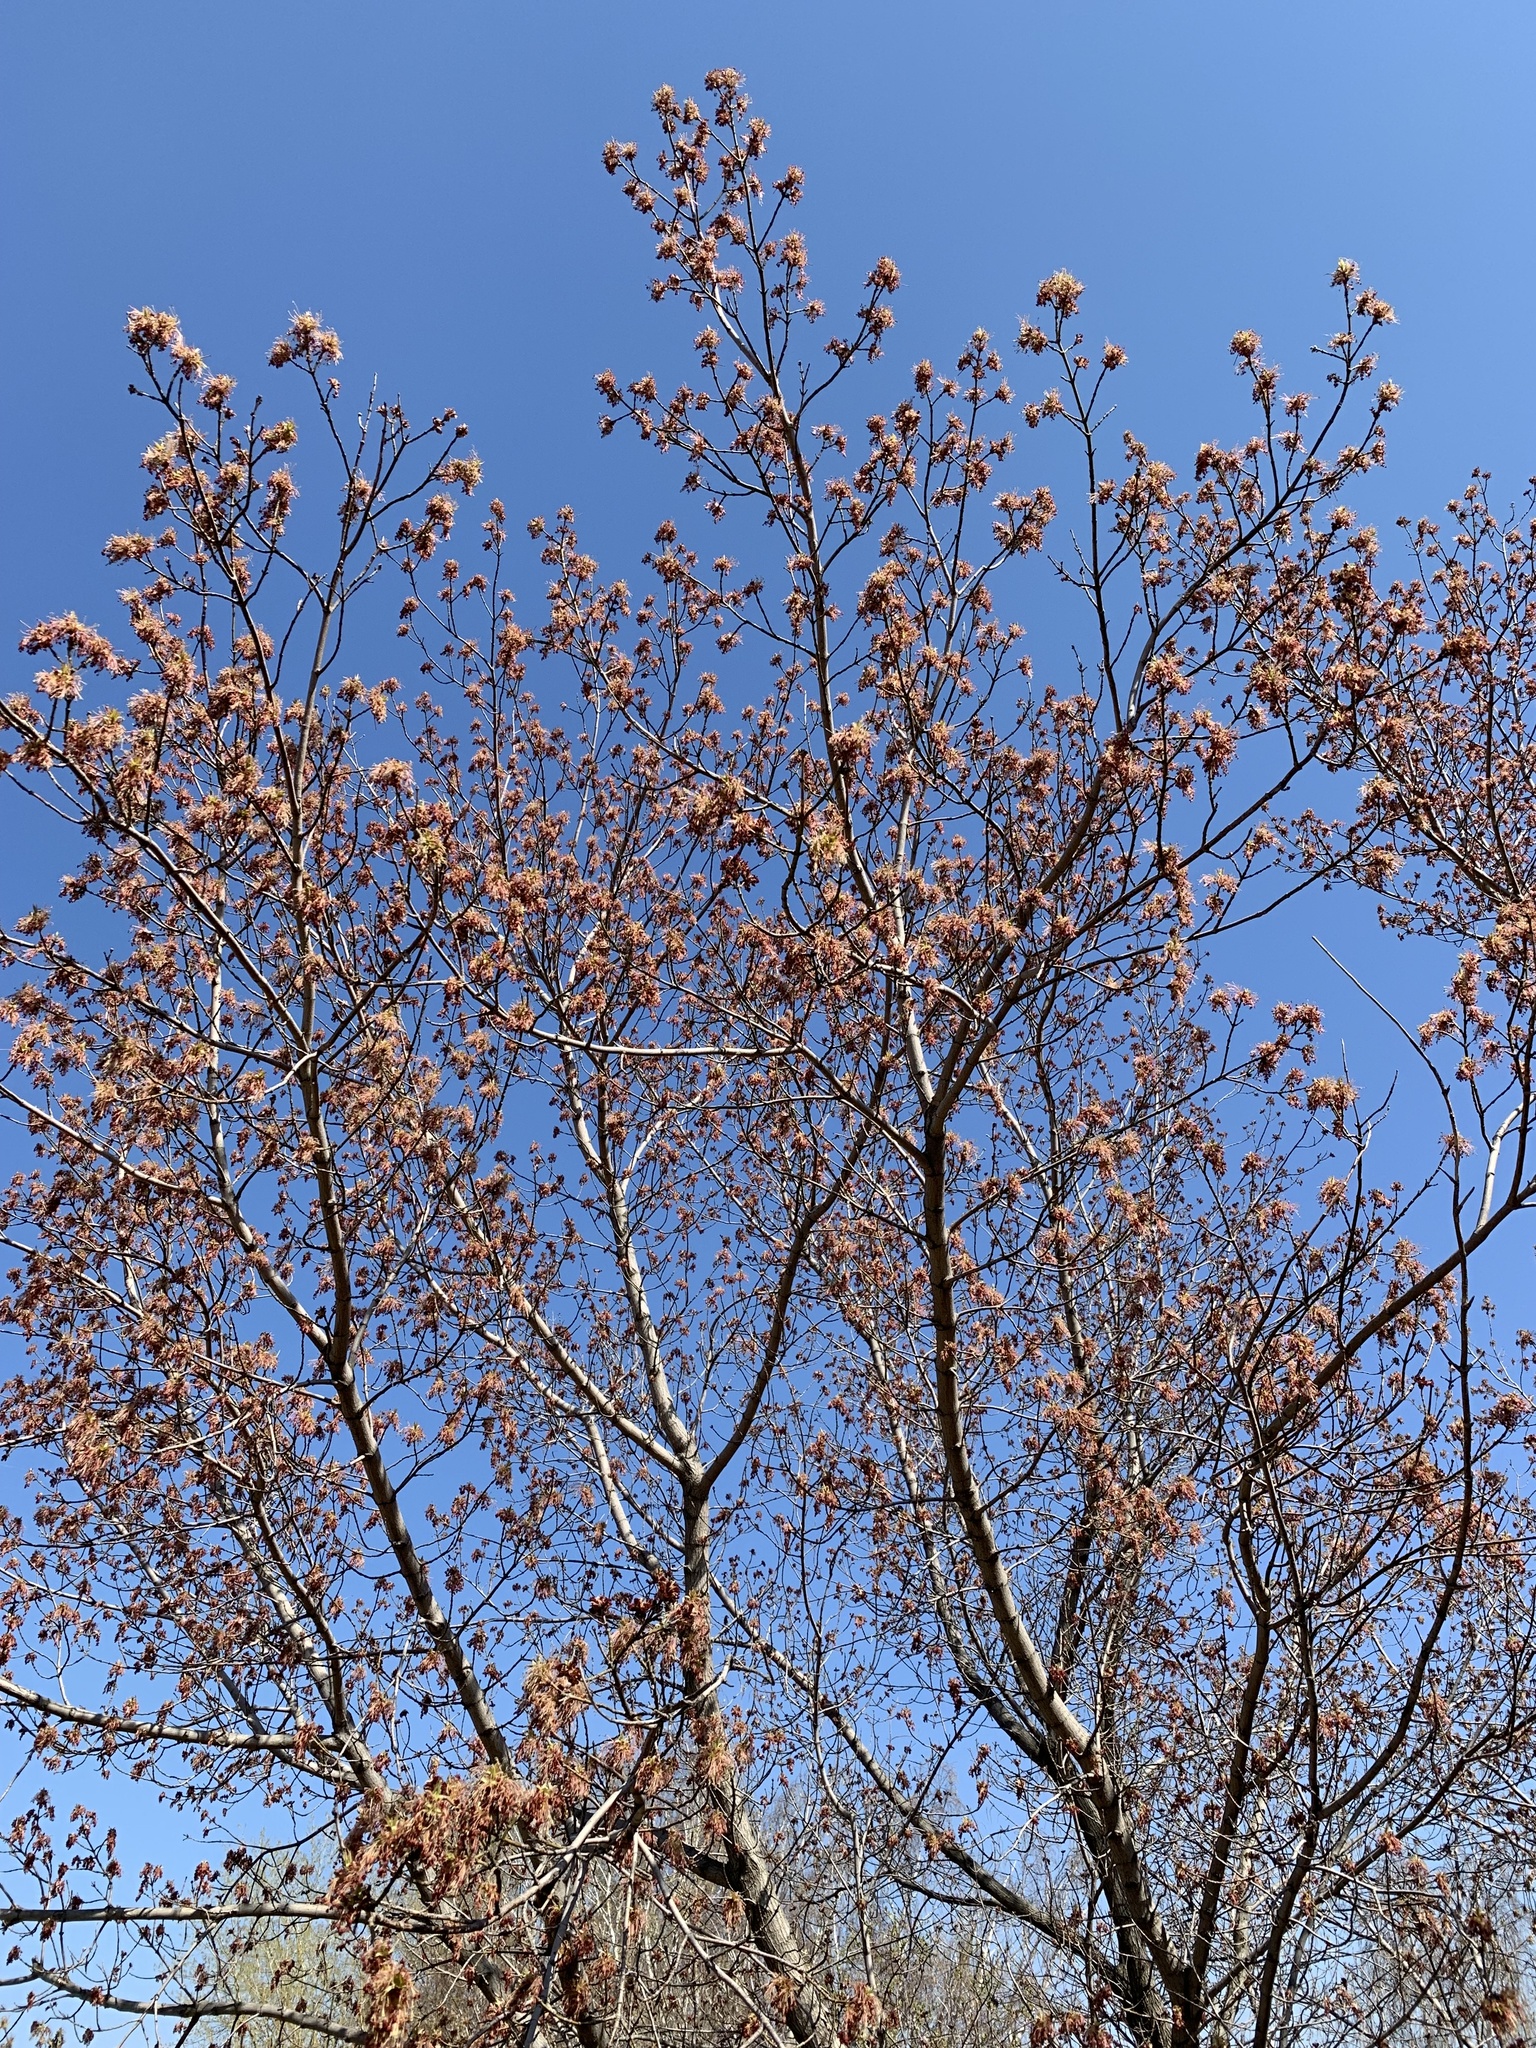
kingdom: Plantae
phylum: Tracheophyta
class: Magnoliopsida
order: Sapindales
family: Sapindaceae
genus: Acer
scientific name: Acer negundo
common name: Ashleaf maple
